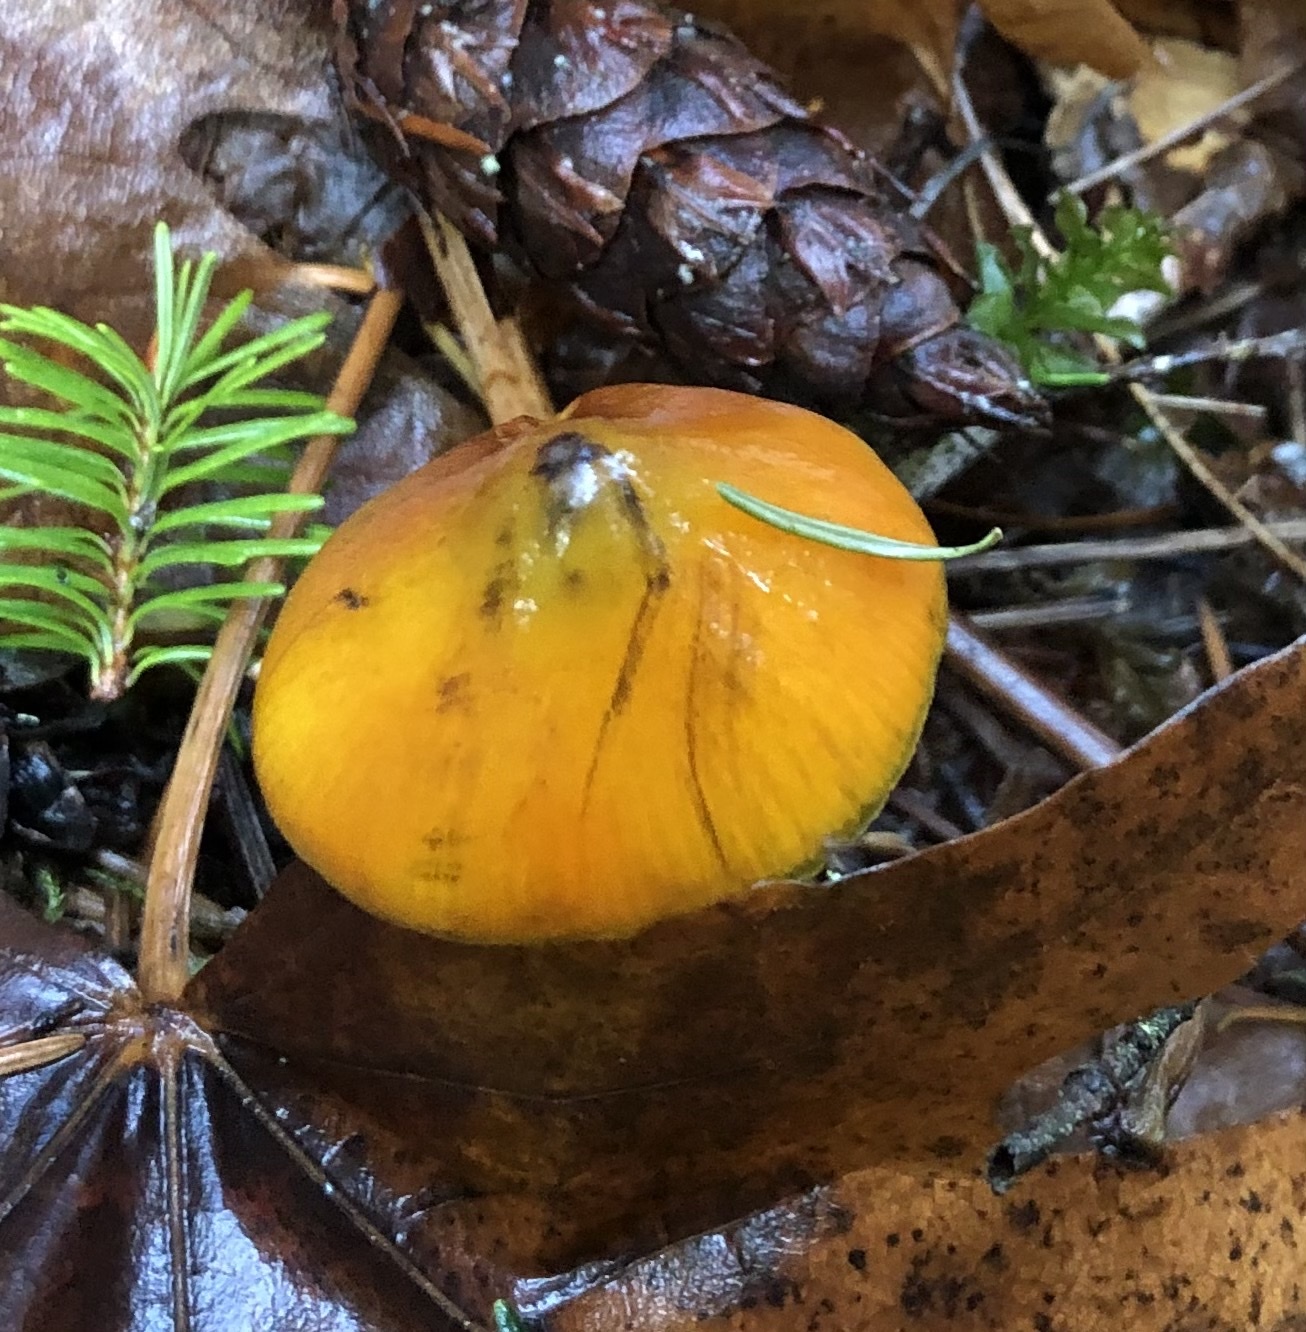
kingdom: Fungi
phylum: Basidiomycota
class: Agaricomycetes
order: Agaricales
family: Hygrophoraceae
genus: Hygrocybe
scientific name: Hygrocybe singeri
